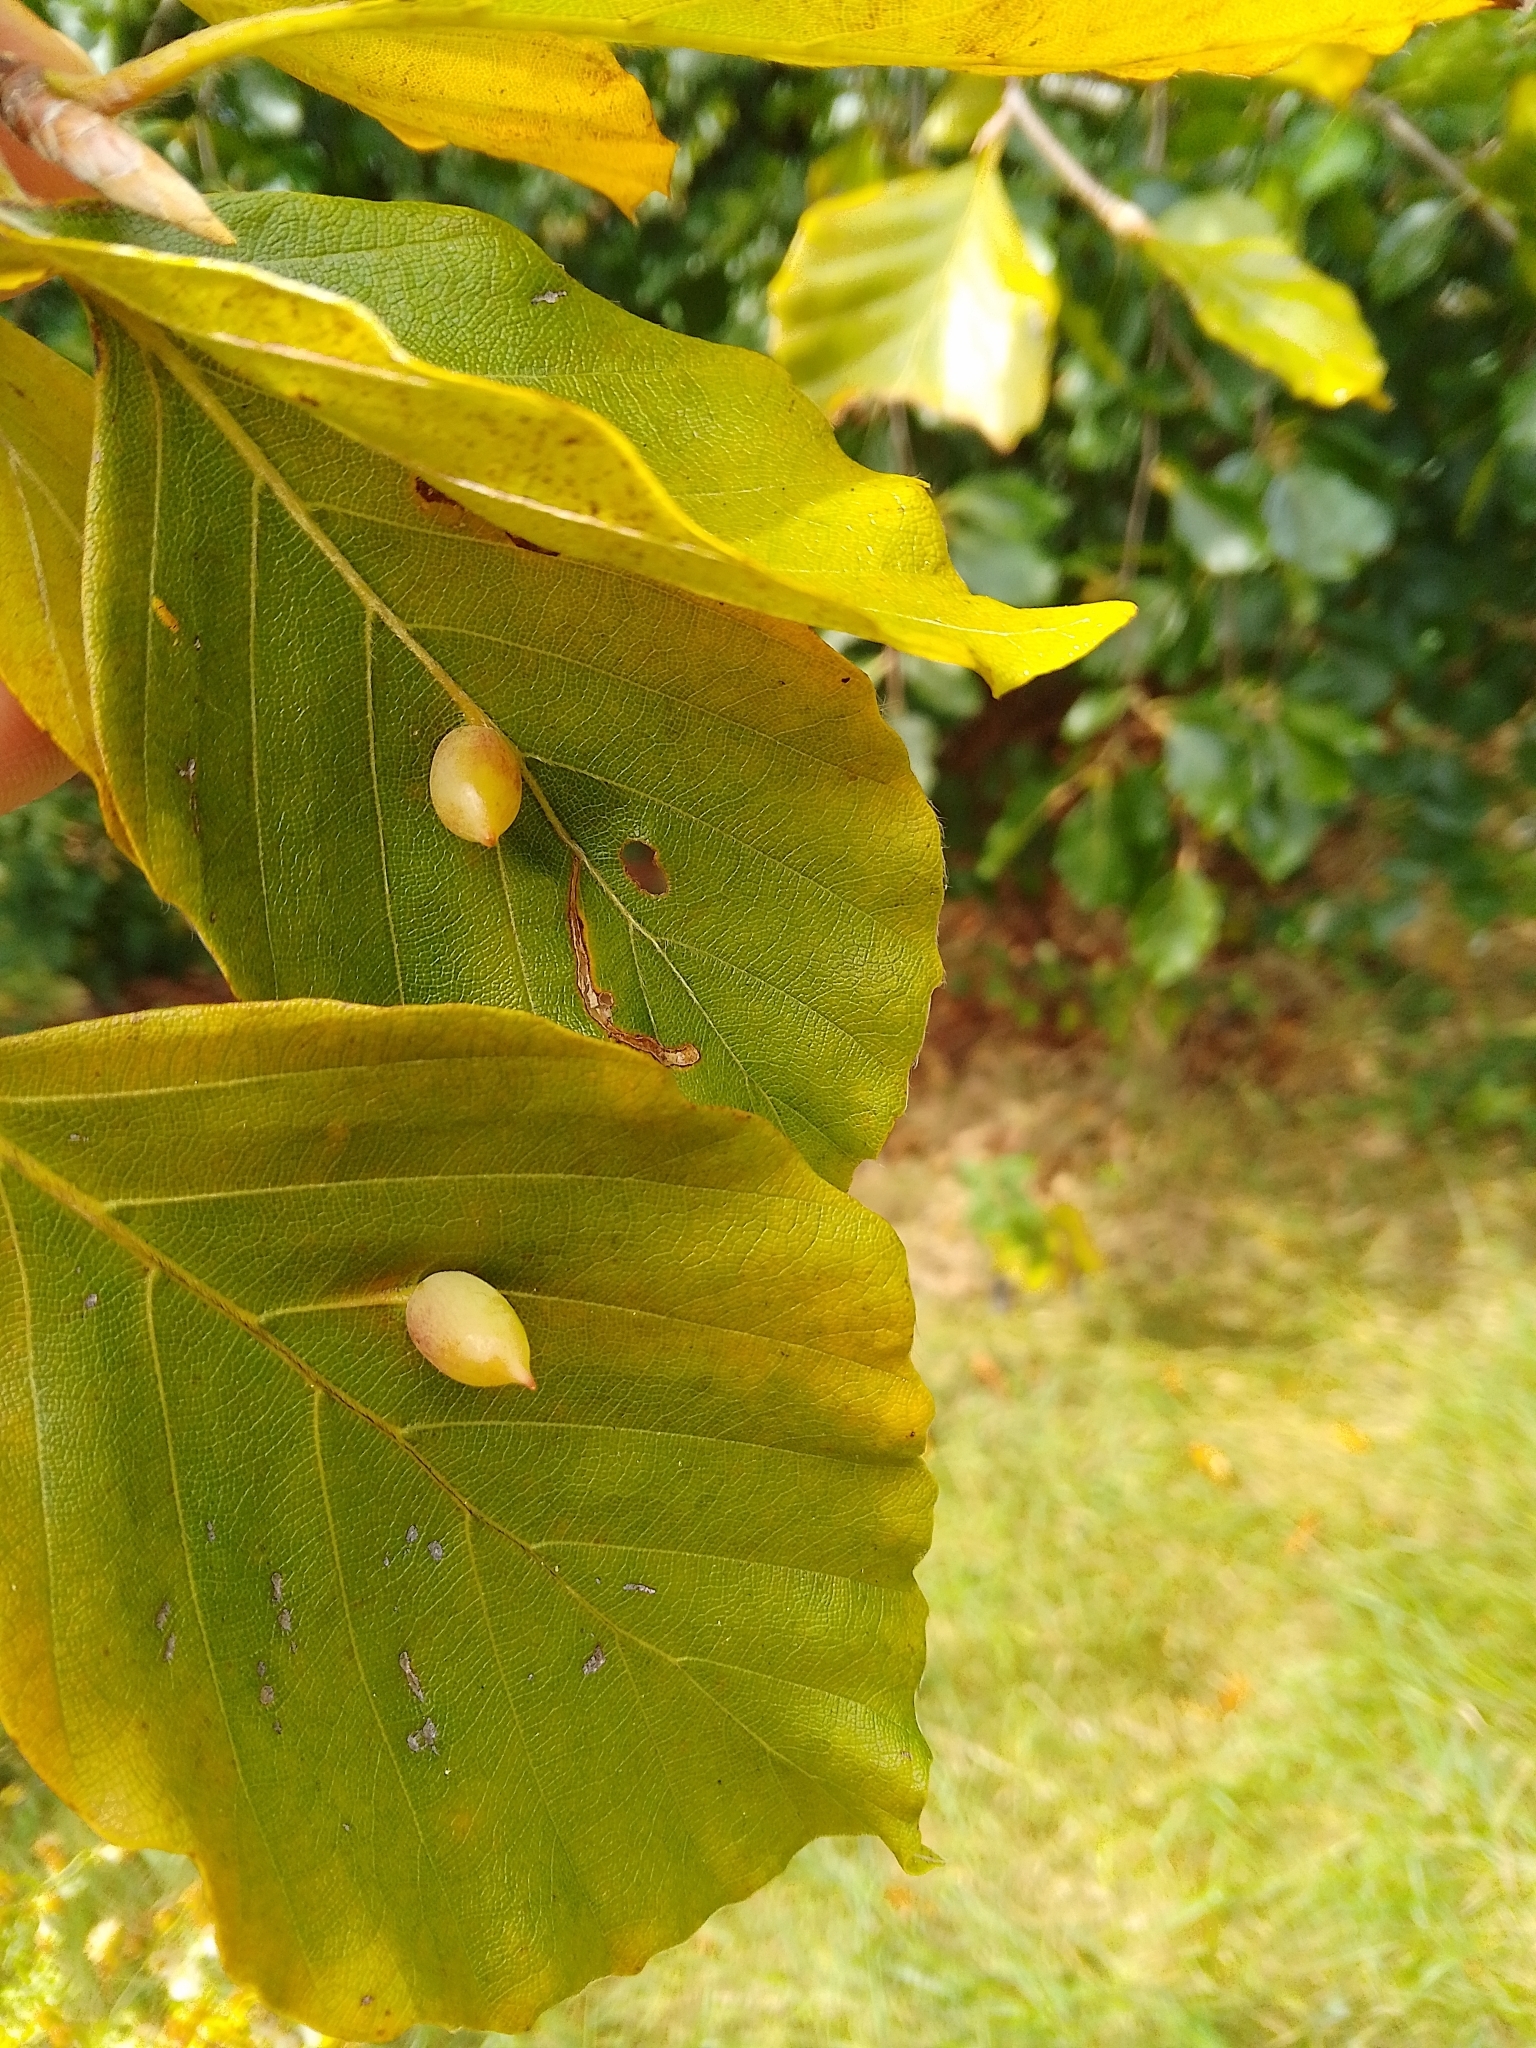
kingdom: Animalia
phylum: Arthropoda
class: Insecta
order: Diptera
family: Cecidomyiidae
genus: Mikiola
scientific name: Mikiola fagi
